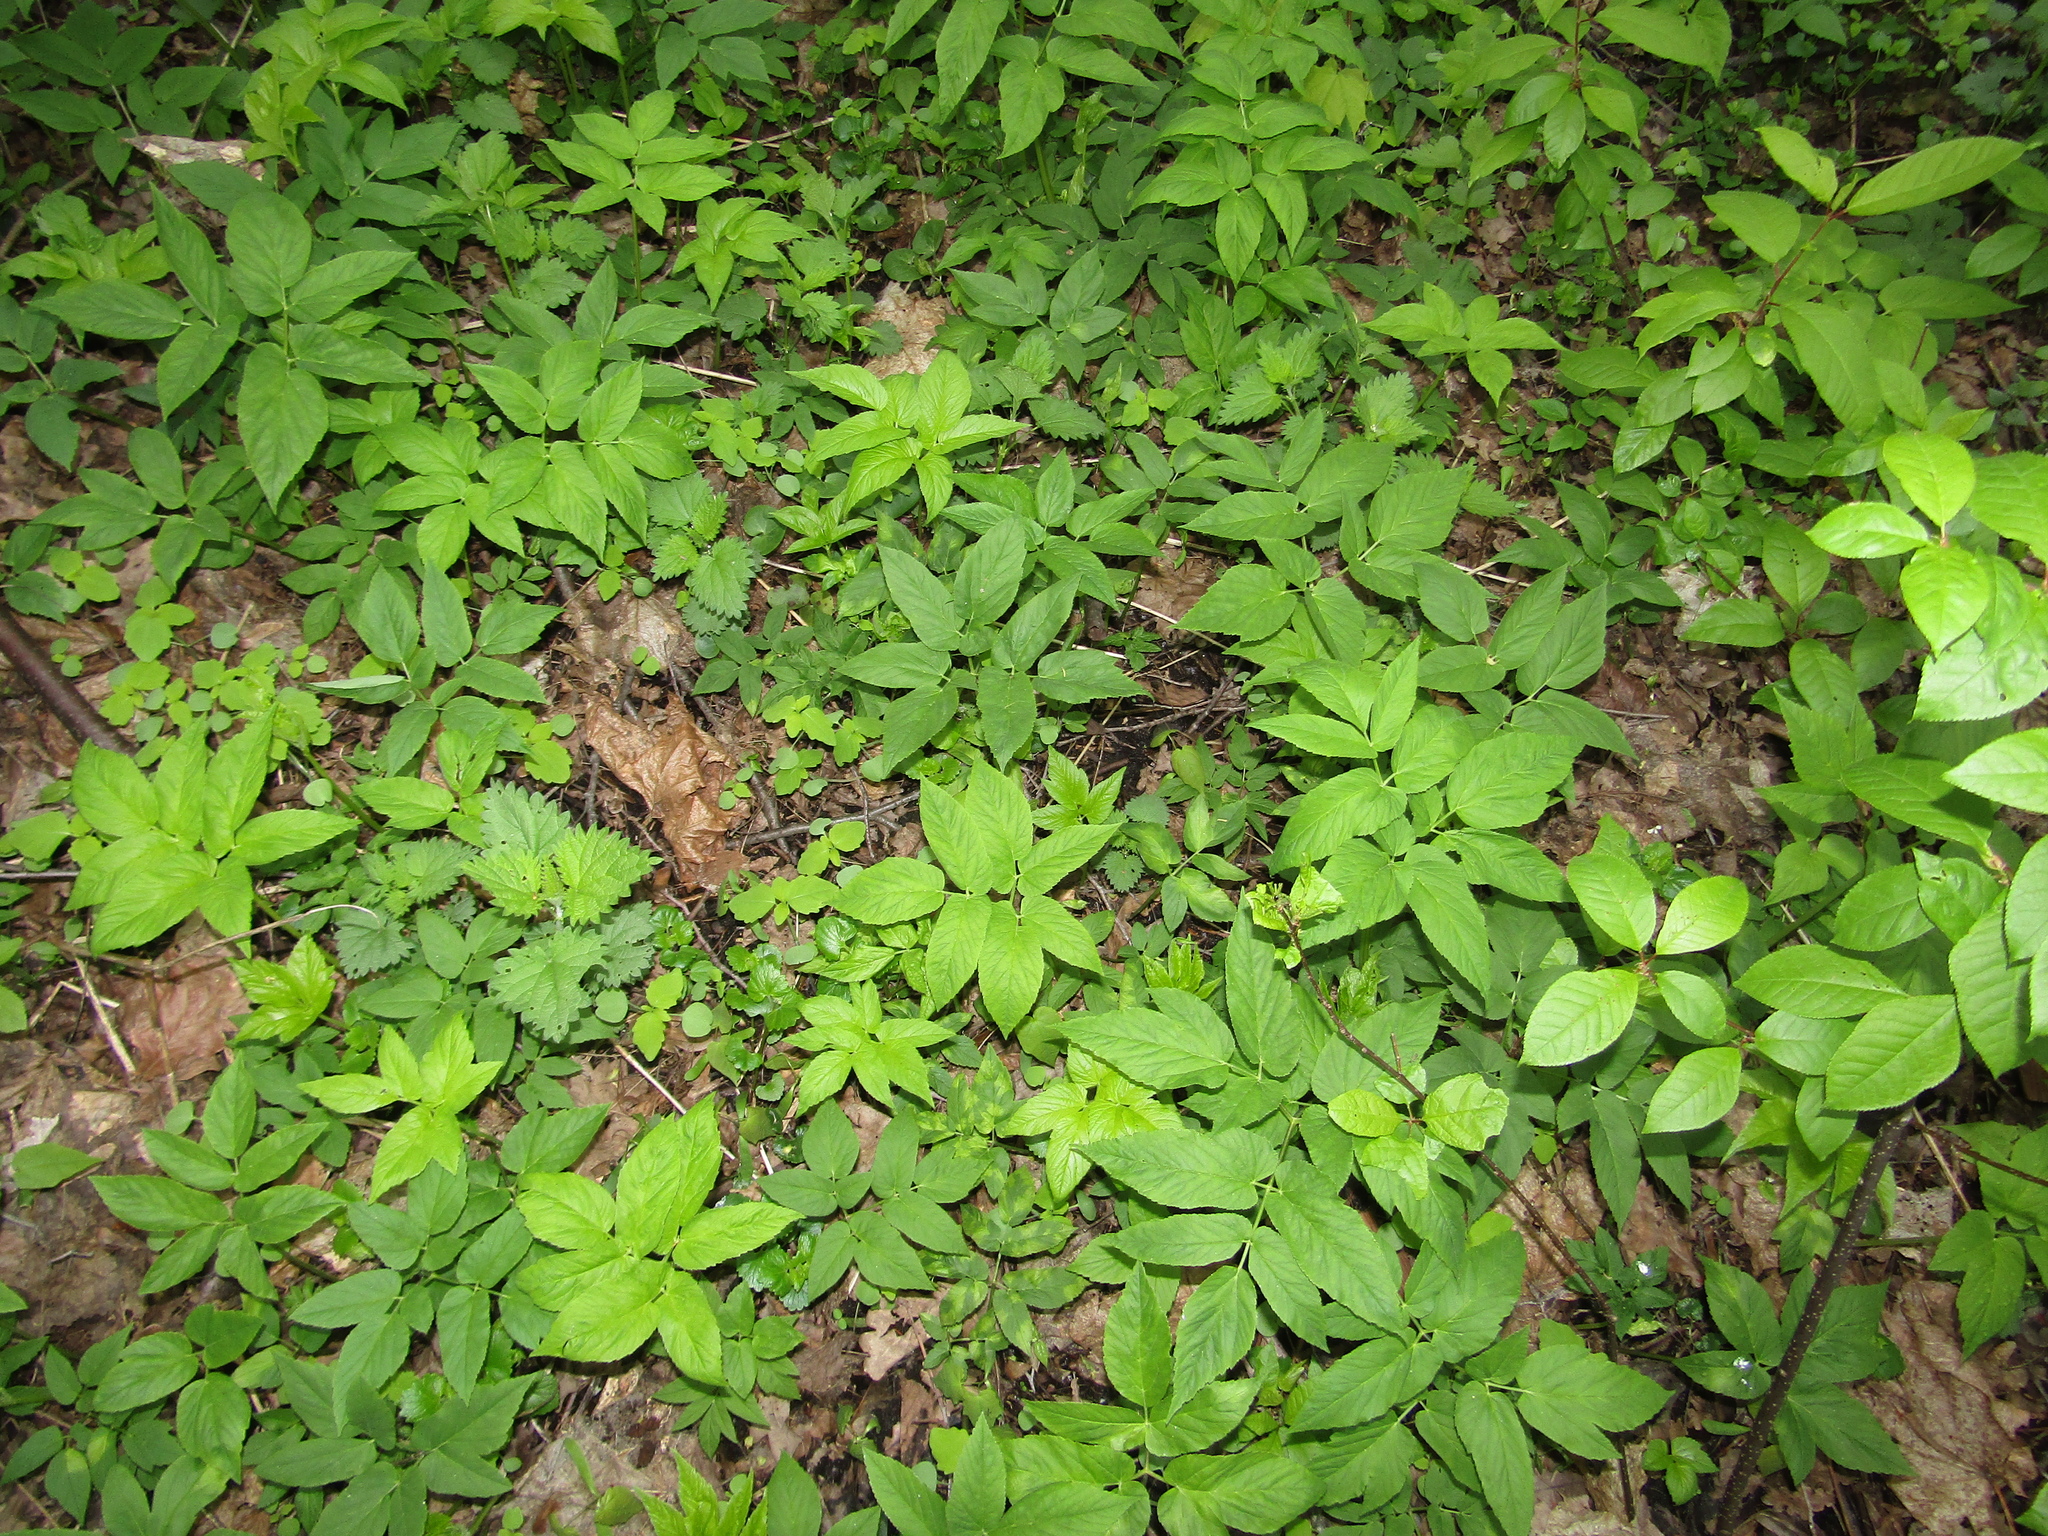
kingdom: Plantae
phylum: Tracheophyta
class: Magnoliopsida
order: Apiales
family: Apiaceae
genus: Aegopodium
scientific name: Aegopodium podagraria
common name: Ground-elder
